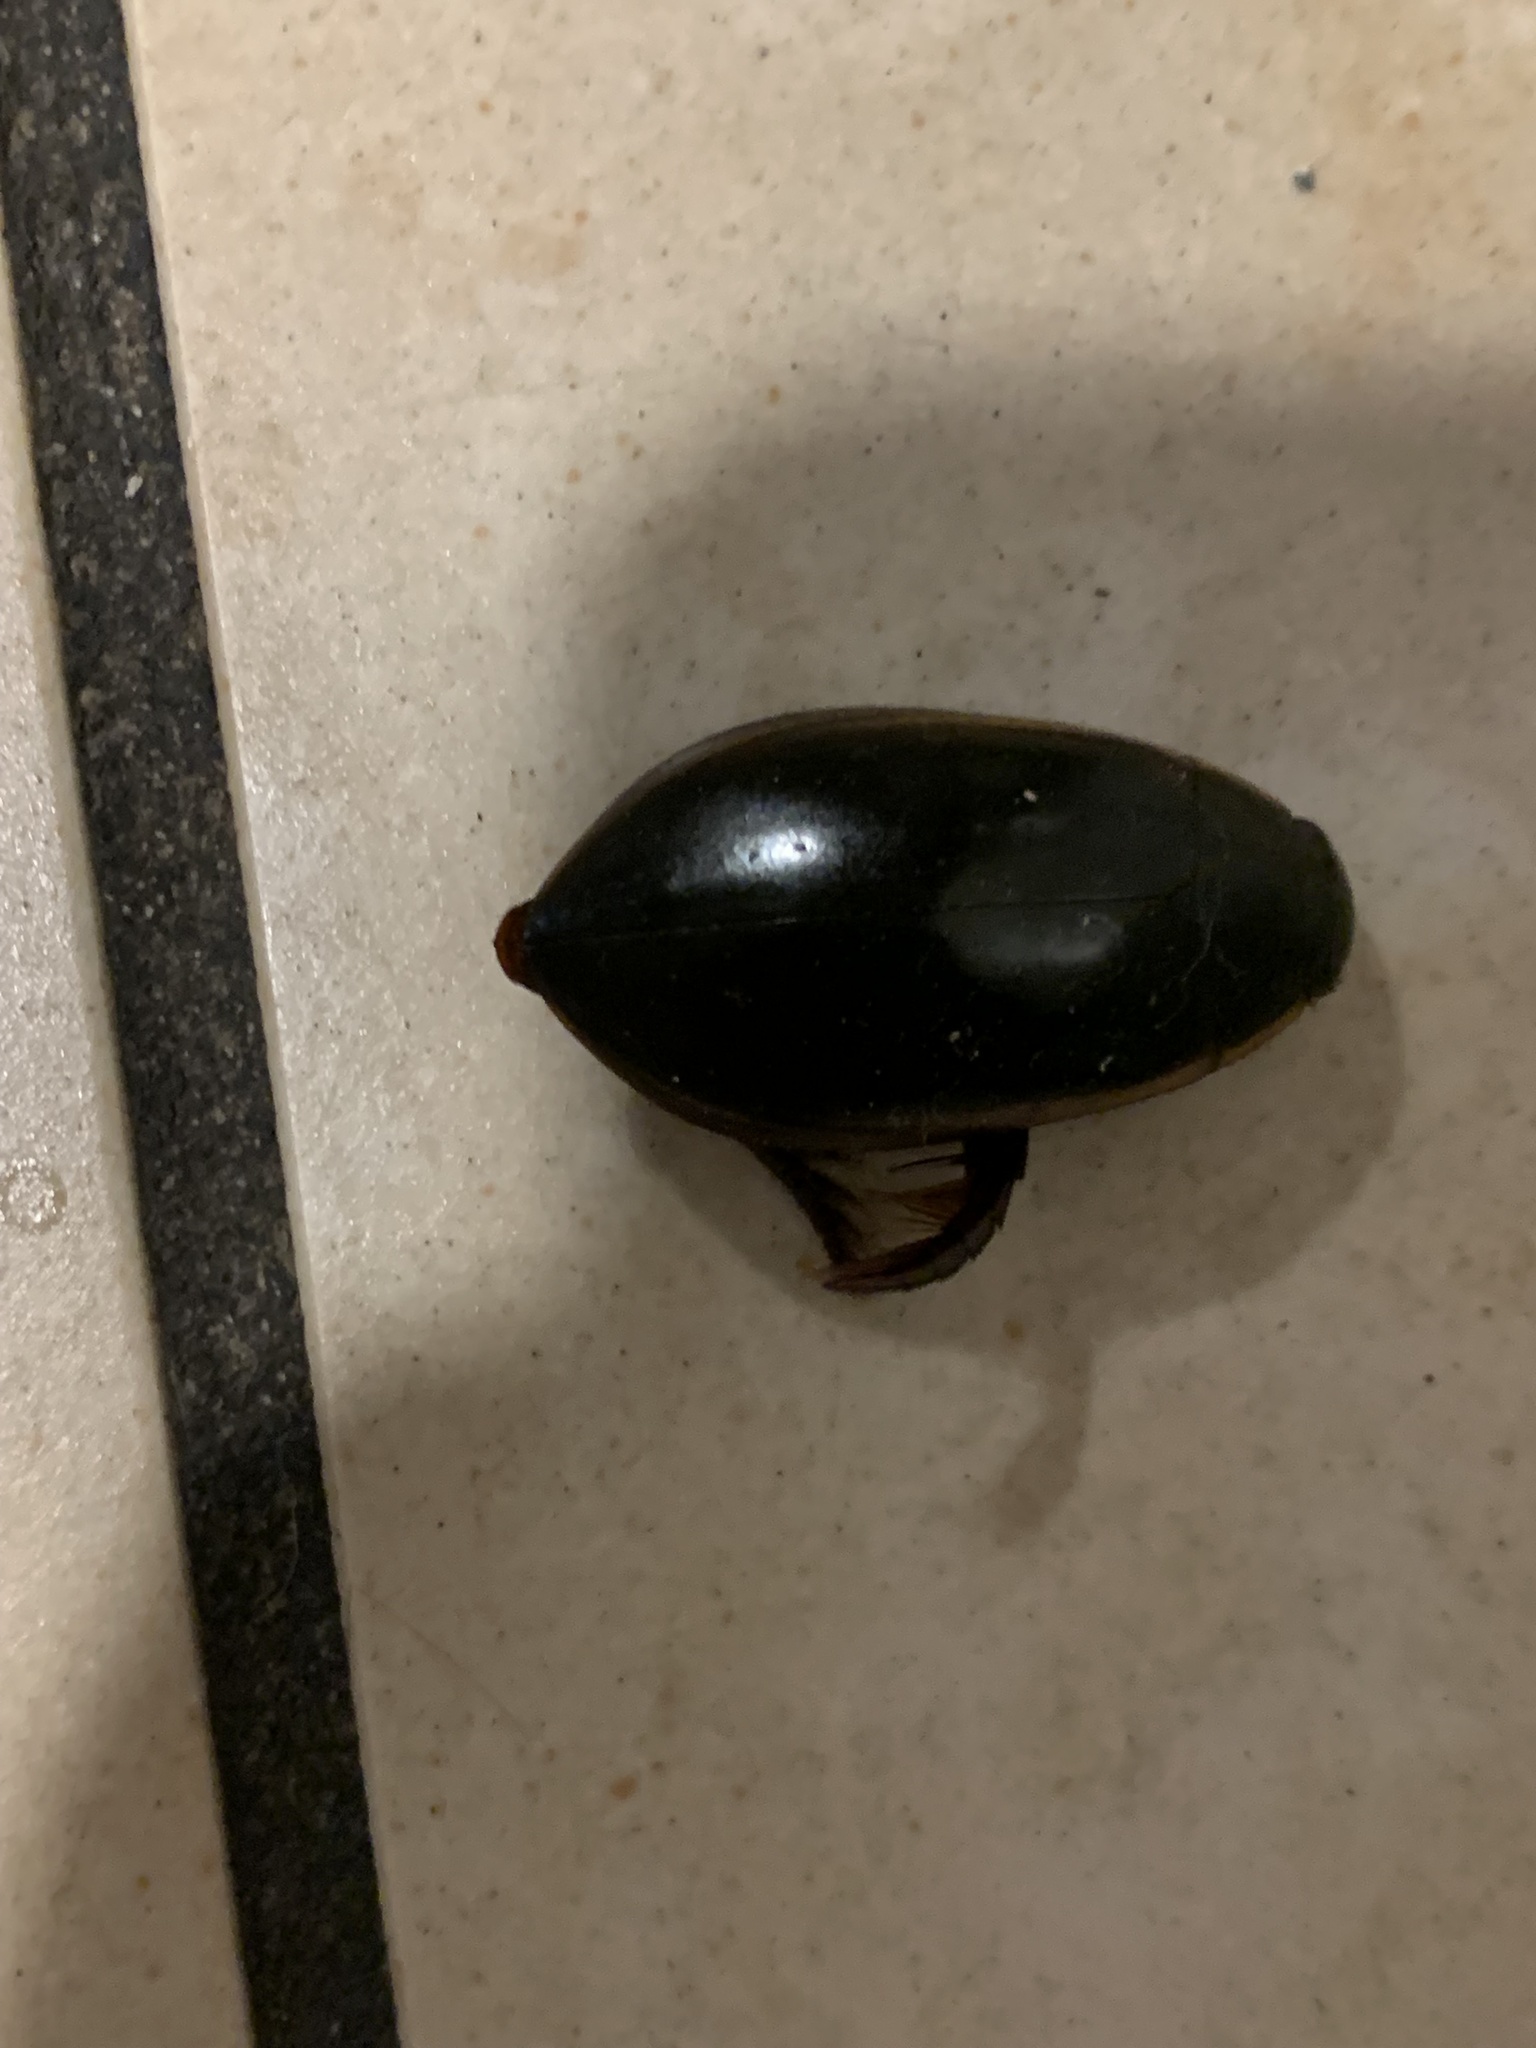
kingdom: Animalia
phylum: Arthropoda
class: Insecta
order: Coleoptera
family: Dytiscidae
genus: Cybister
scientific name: Cybister fimbriolatus
